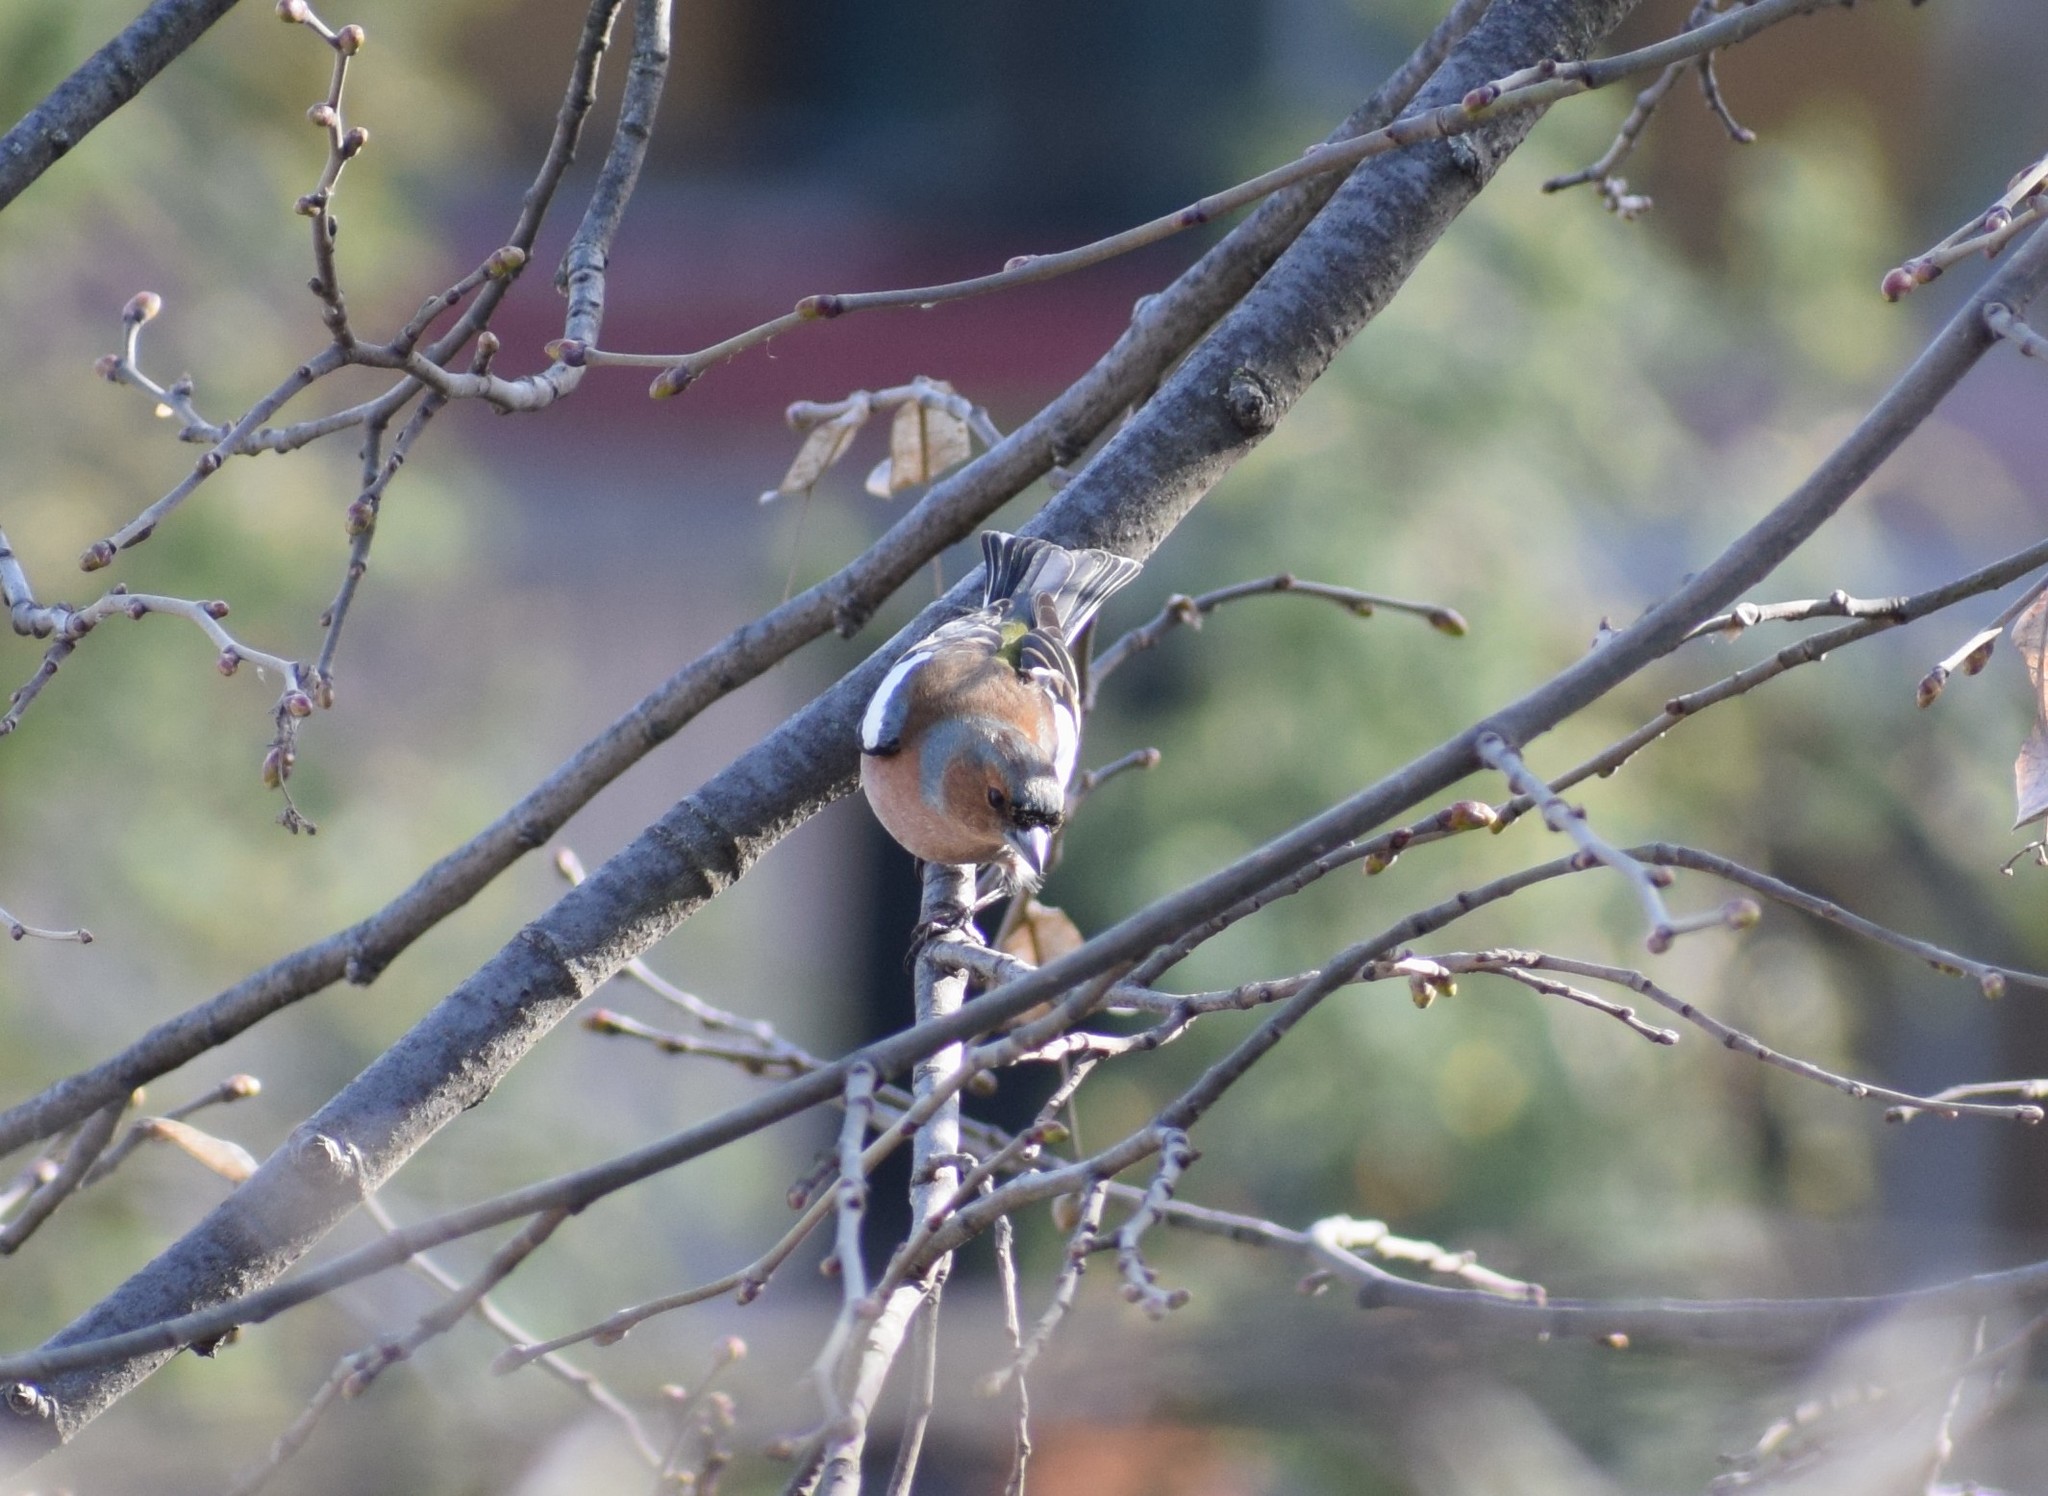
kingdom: Animalia
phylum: Chordata
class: Aves
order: Passeriformes
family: Fringillidae
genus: Fringilla
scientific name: Fringilla coelebs
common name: Common chaffinch
